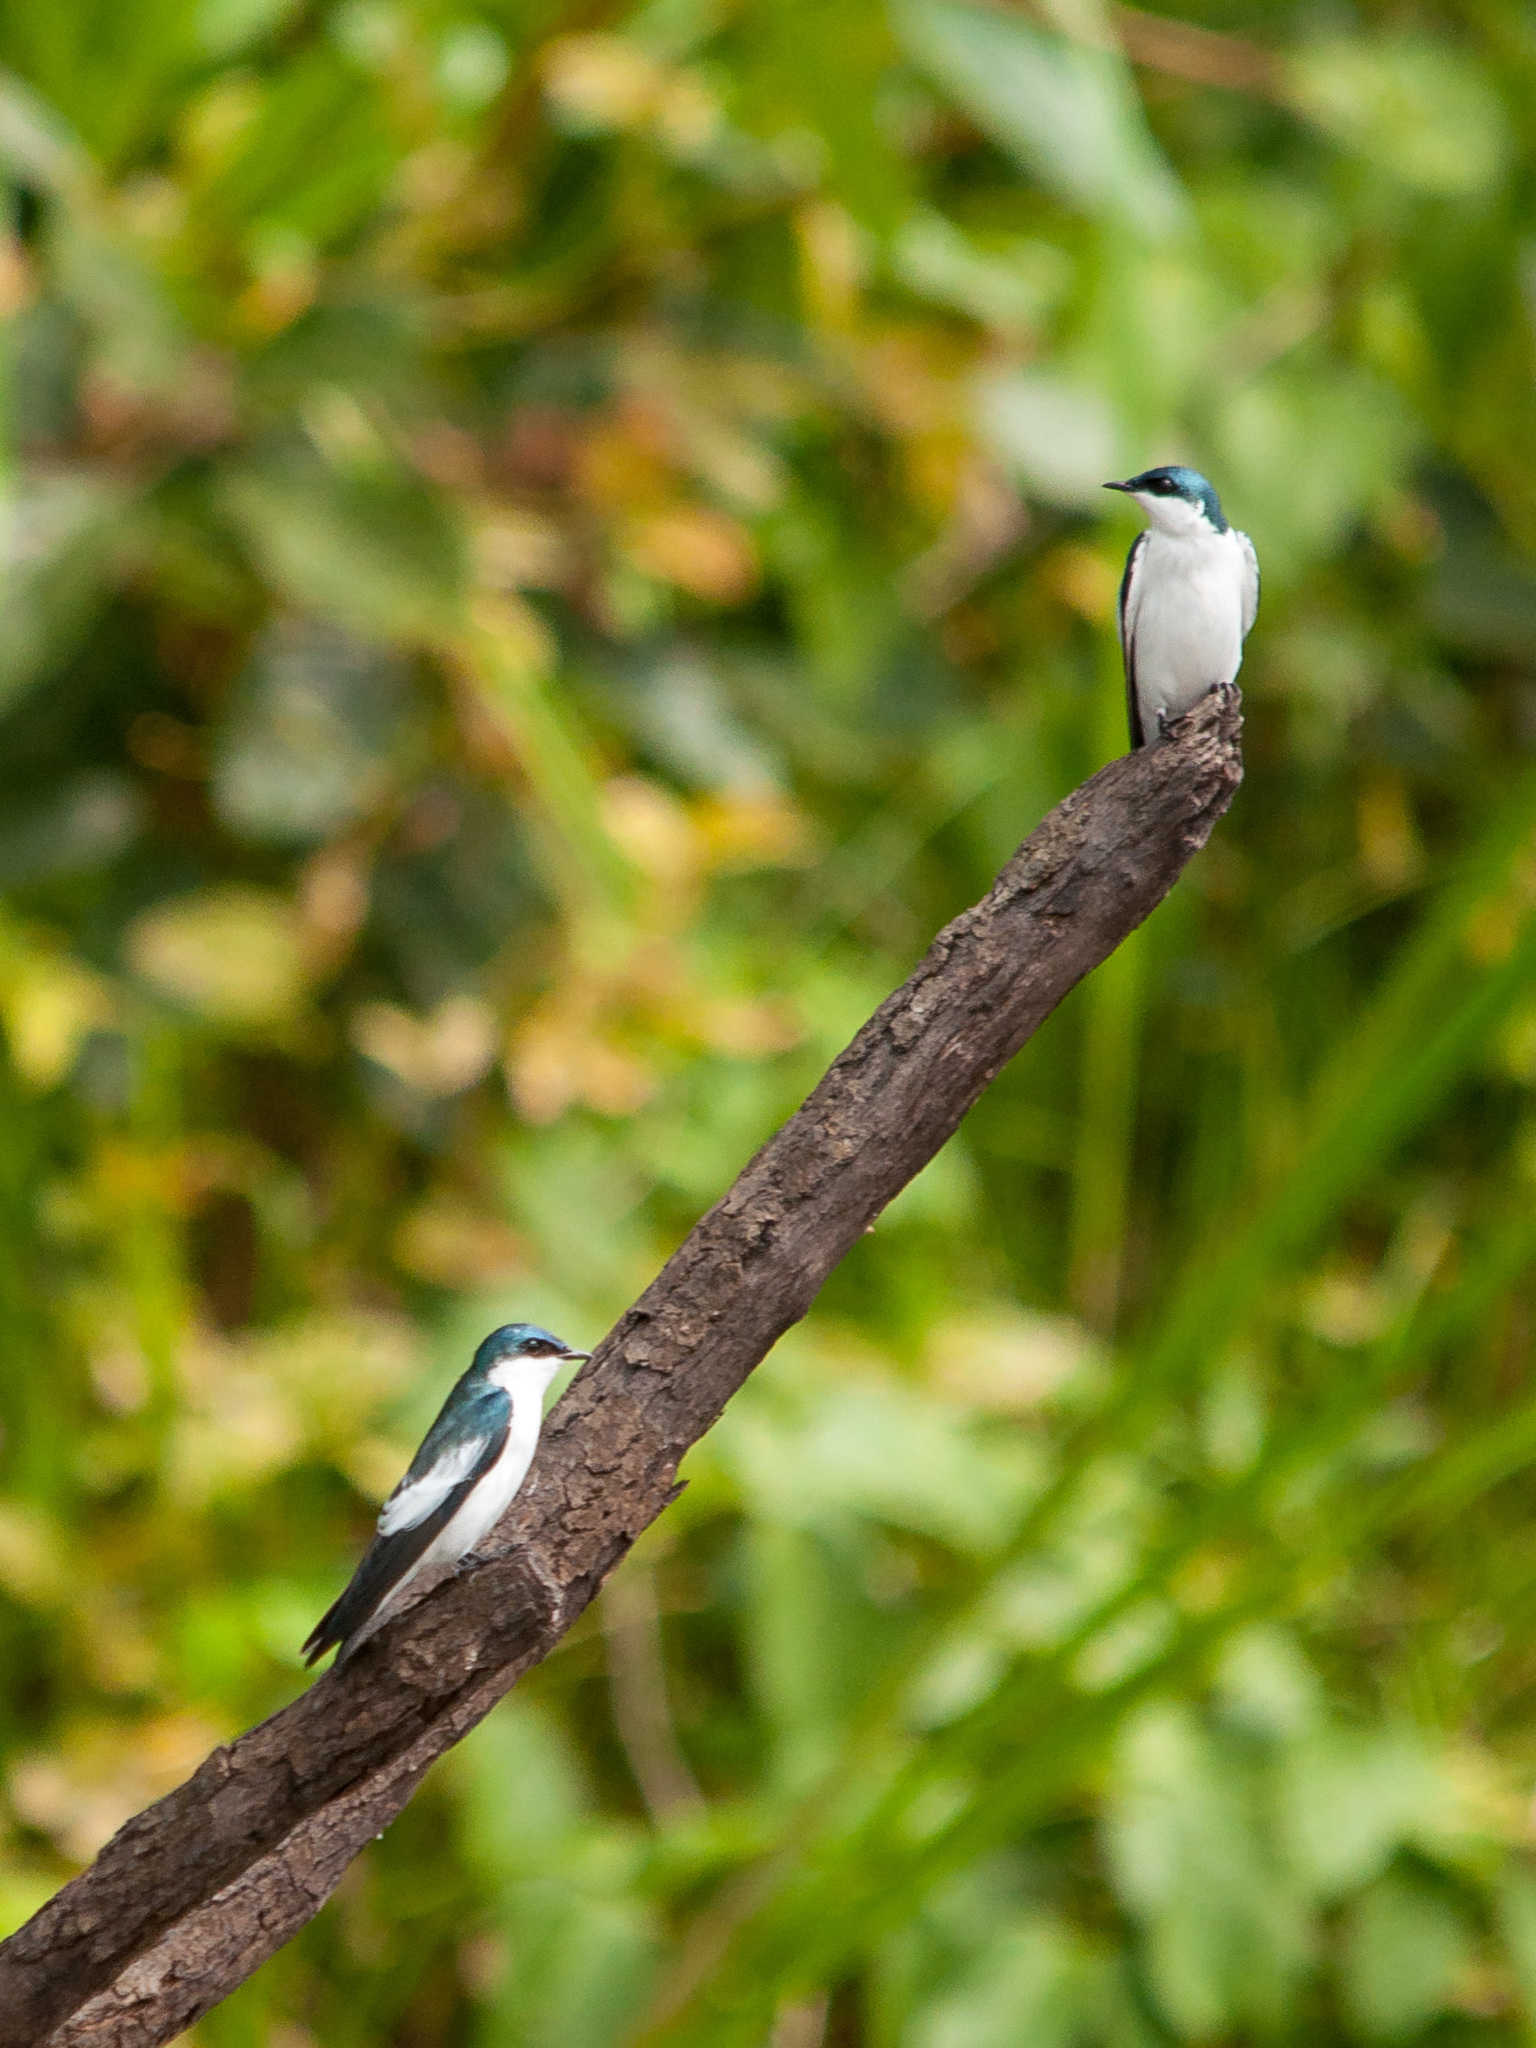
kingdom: Animalia
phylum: Chordata
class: Aves
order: Passeriformes
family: Hirundinidae
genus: Tachycineta
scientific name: Tachycineta albiventer
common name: White-winged swallow
